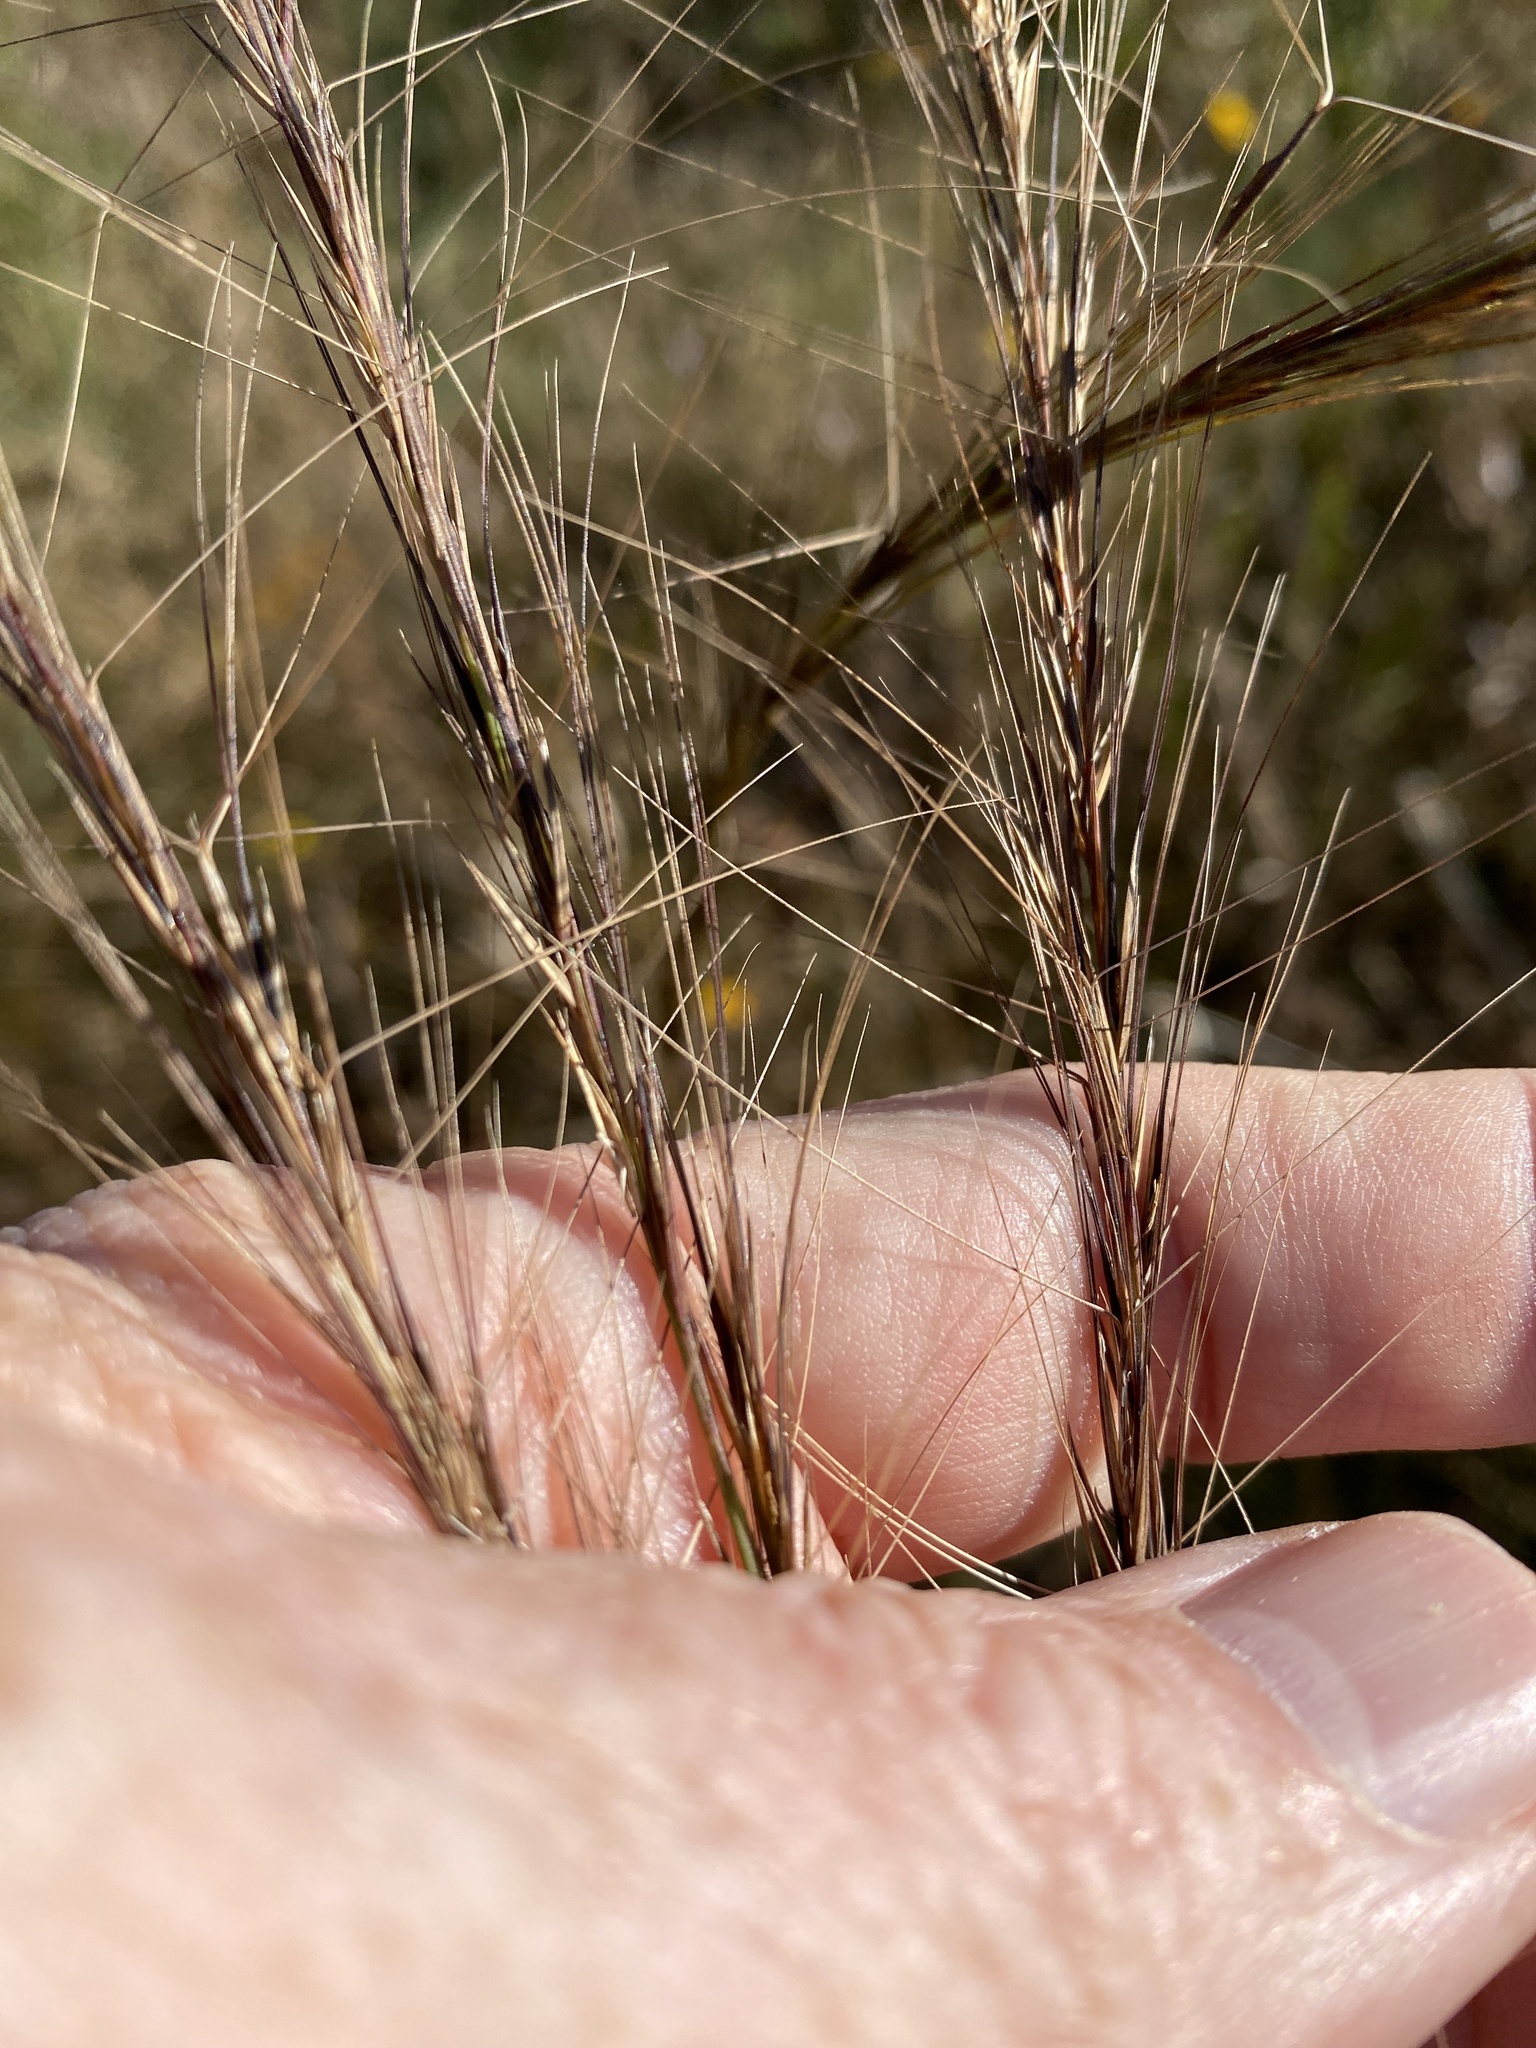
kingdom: Plantae
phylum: Tracheophyta
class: Liliopsida
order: Poales
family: Poaceae
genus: Aristida
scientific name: Aristida palustris
